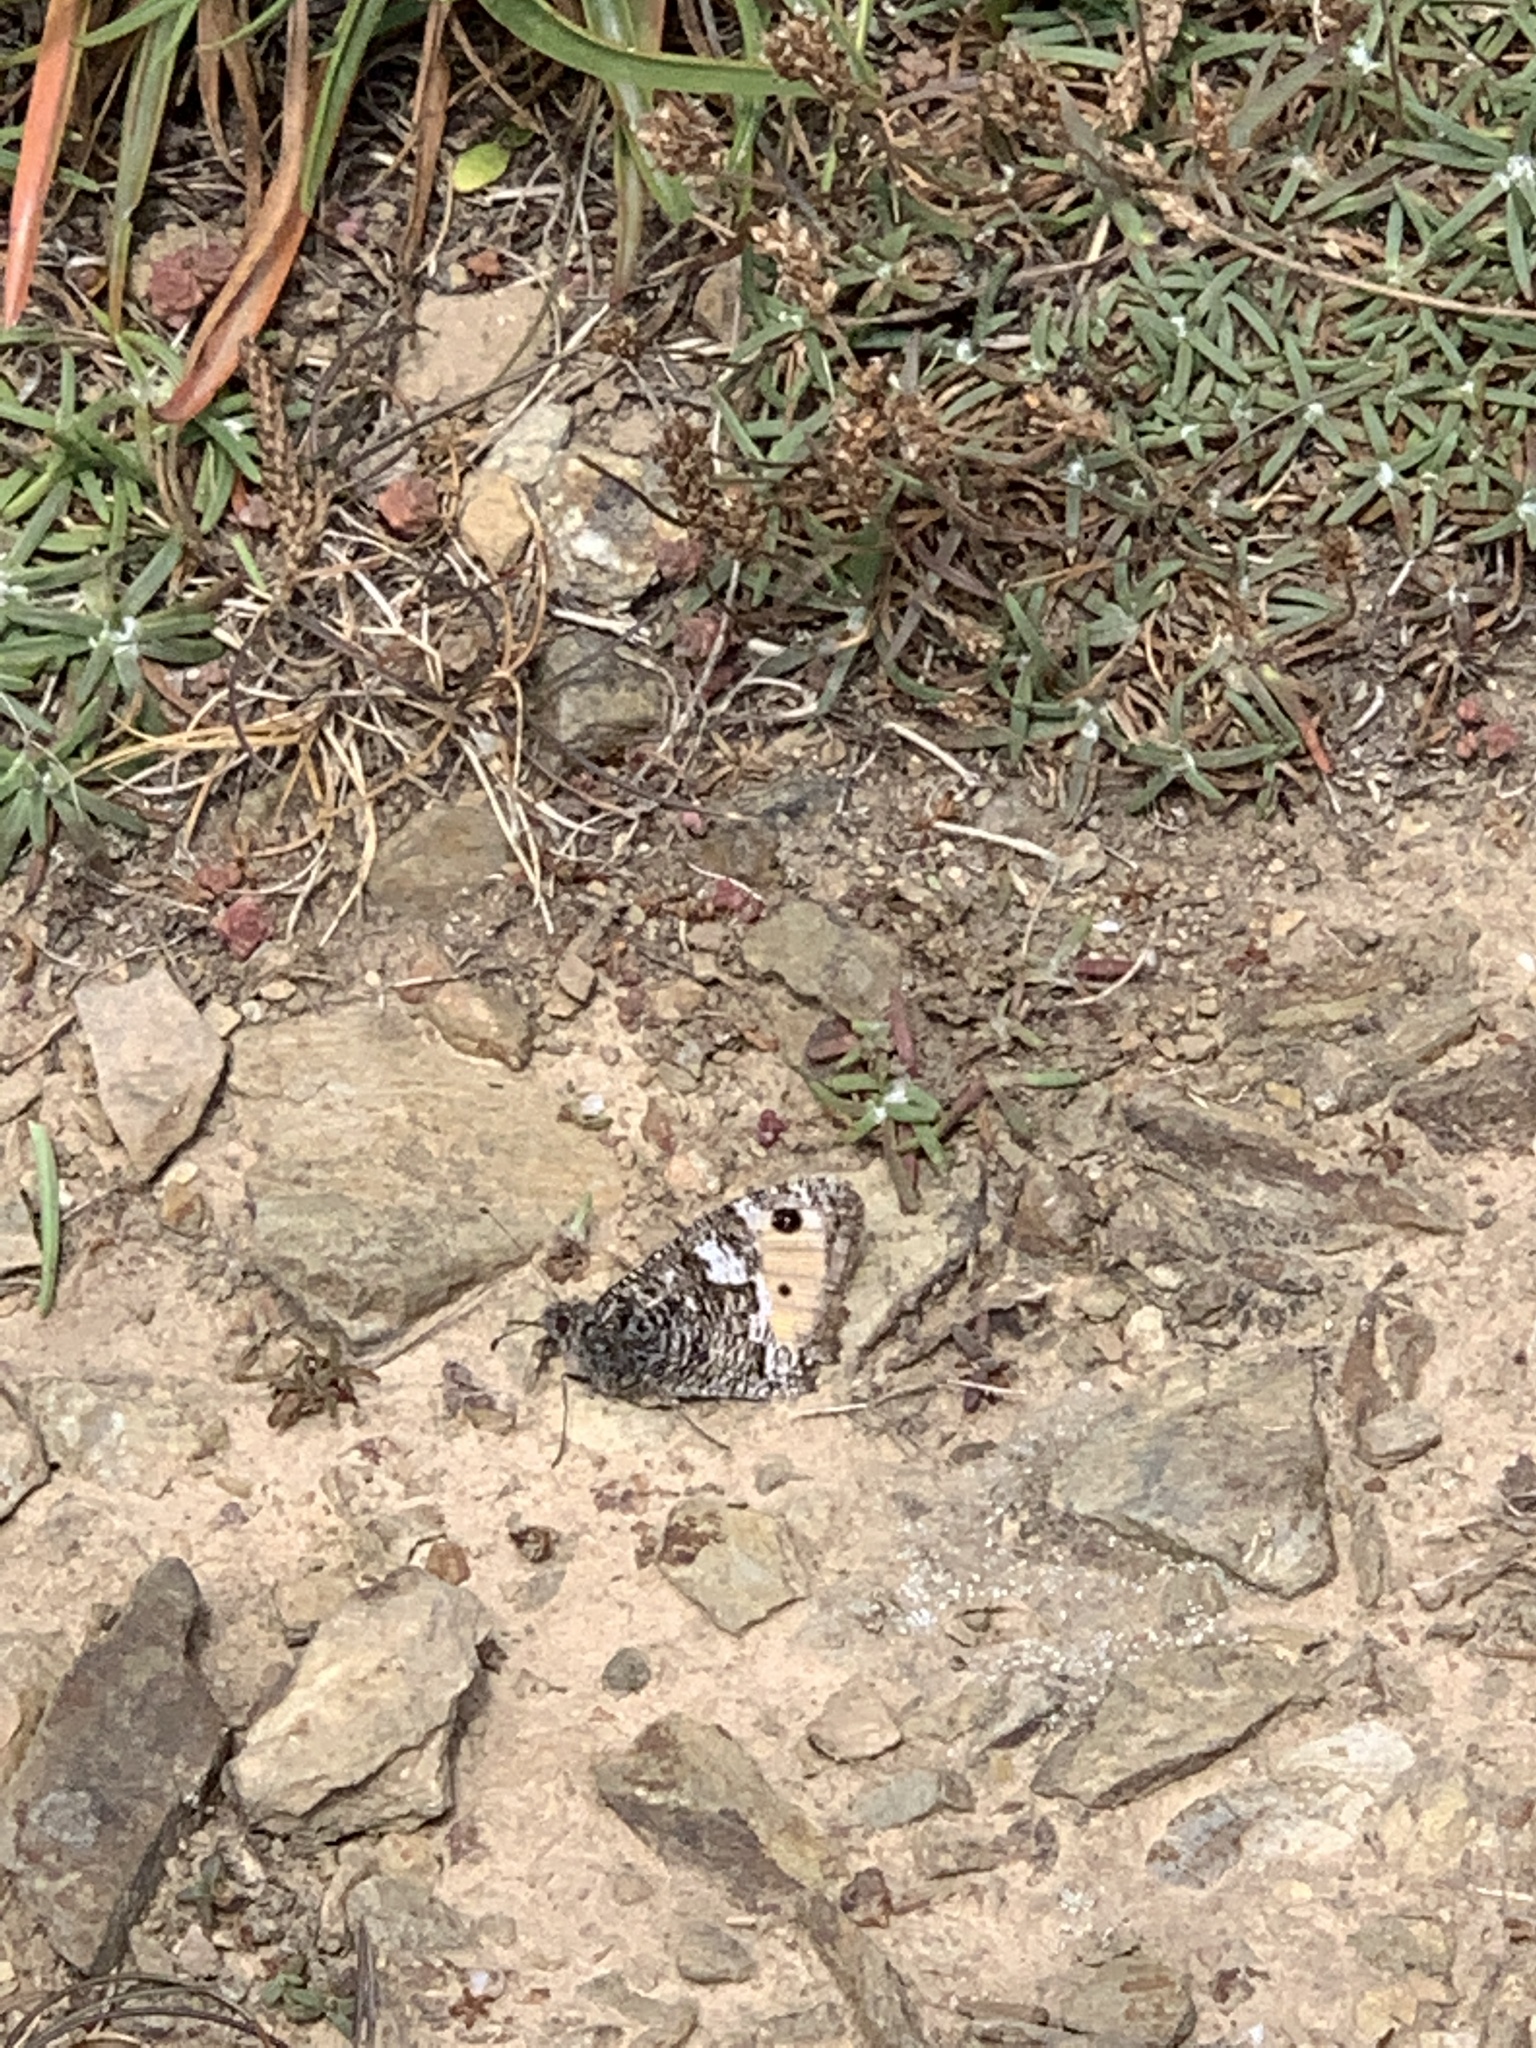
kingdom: Animalia
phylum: Arthropoda
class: Insecta
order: Lepidoptera
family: Nymphalidae
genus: Hipparchia
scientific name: Hipparchia semele
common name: Grayling
